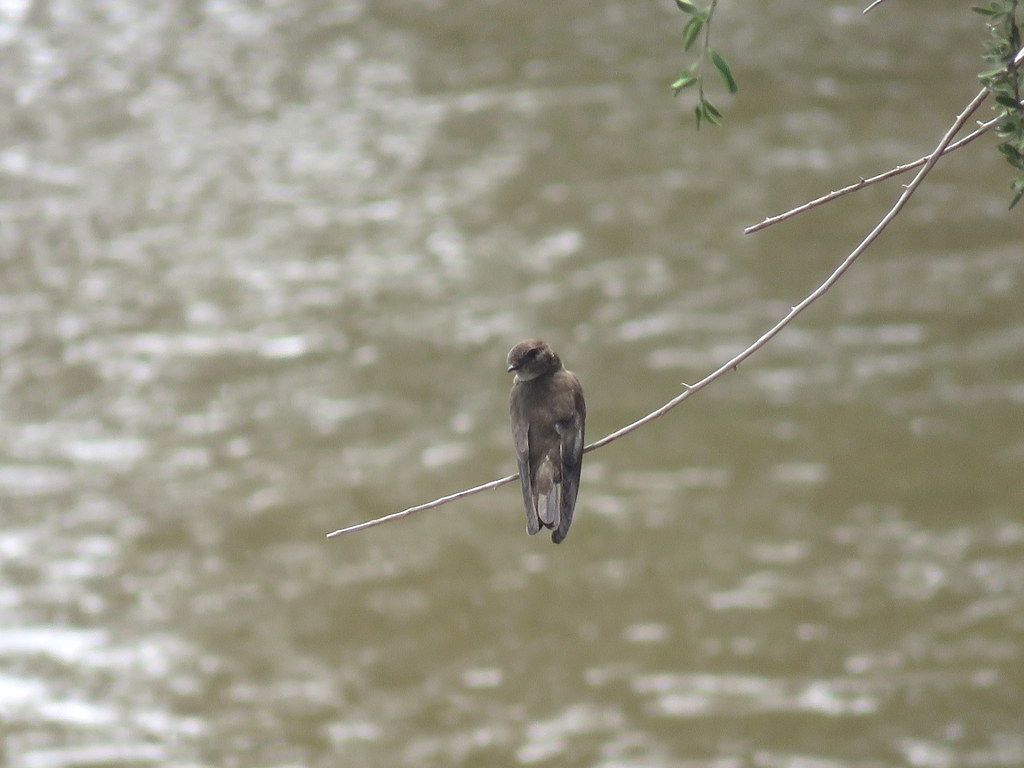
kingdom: Animalia
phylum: Chordata
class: Aves
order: Passeriformes
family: Hirundinidae
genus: Riparia
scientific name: Riparia paludicola
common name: Brown-throated martin
